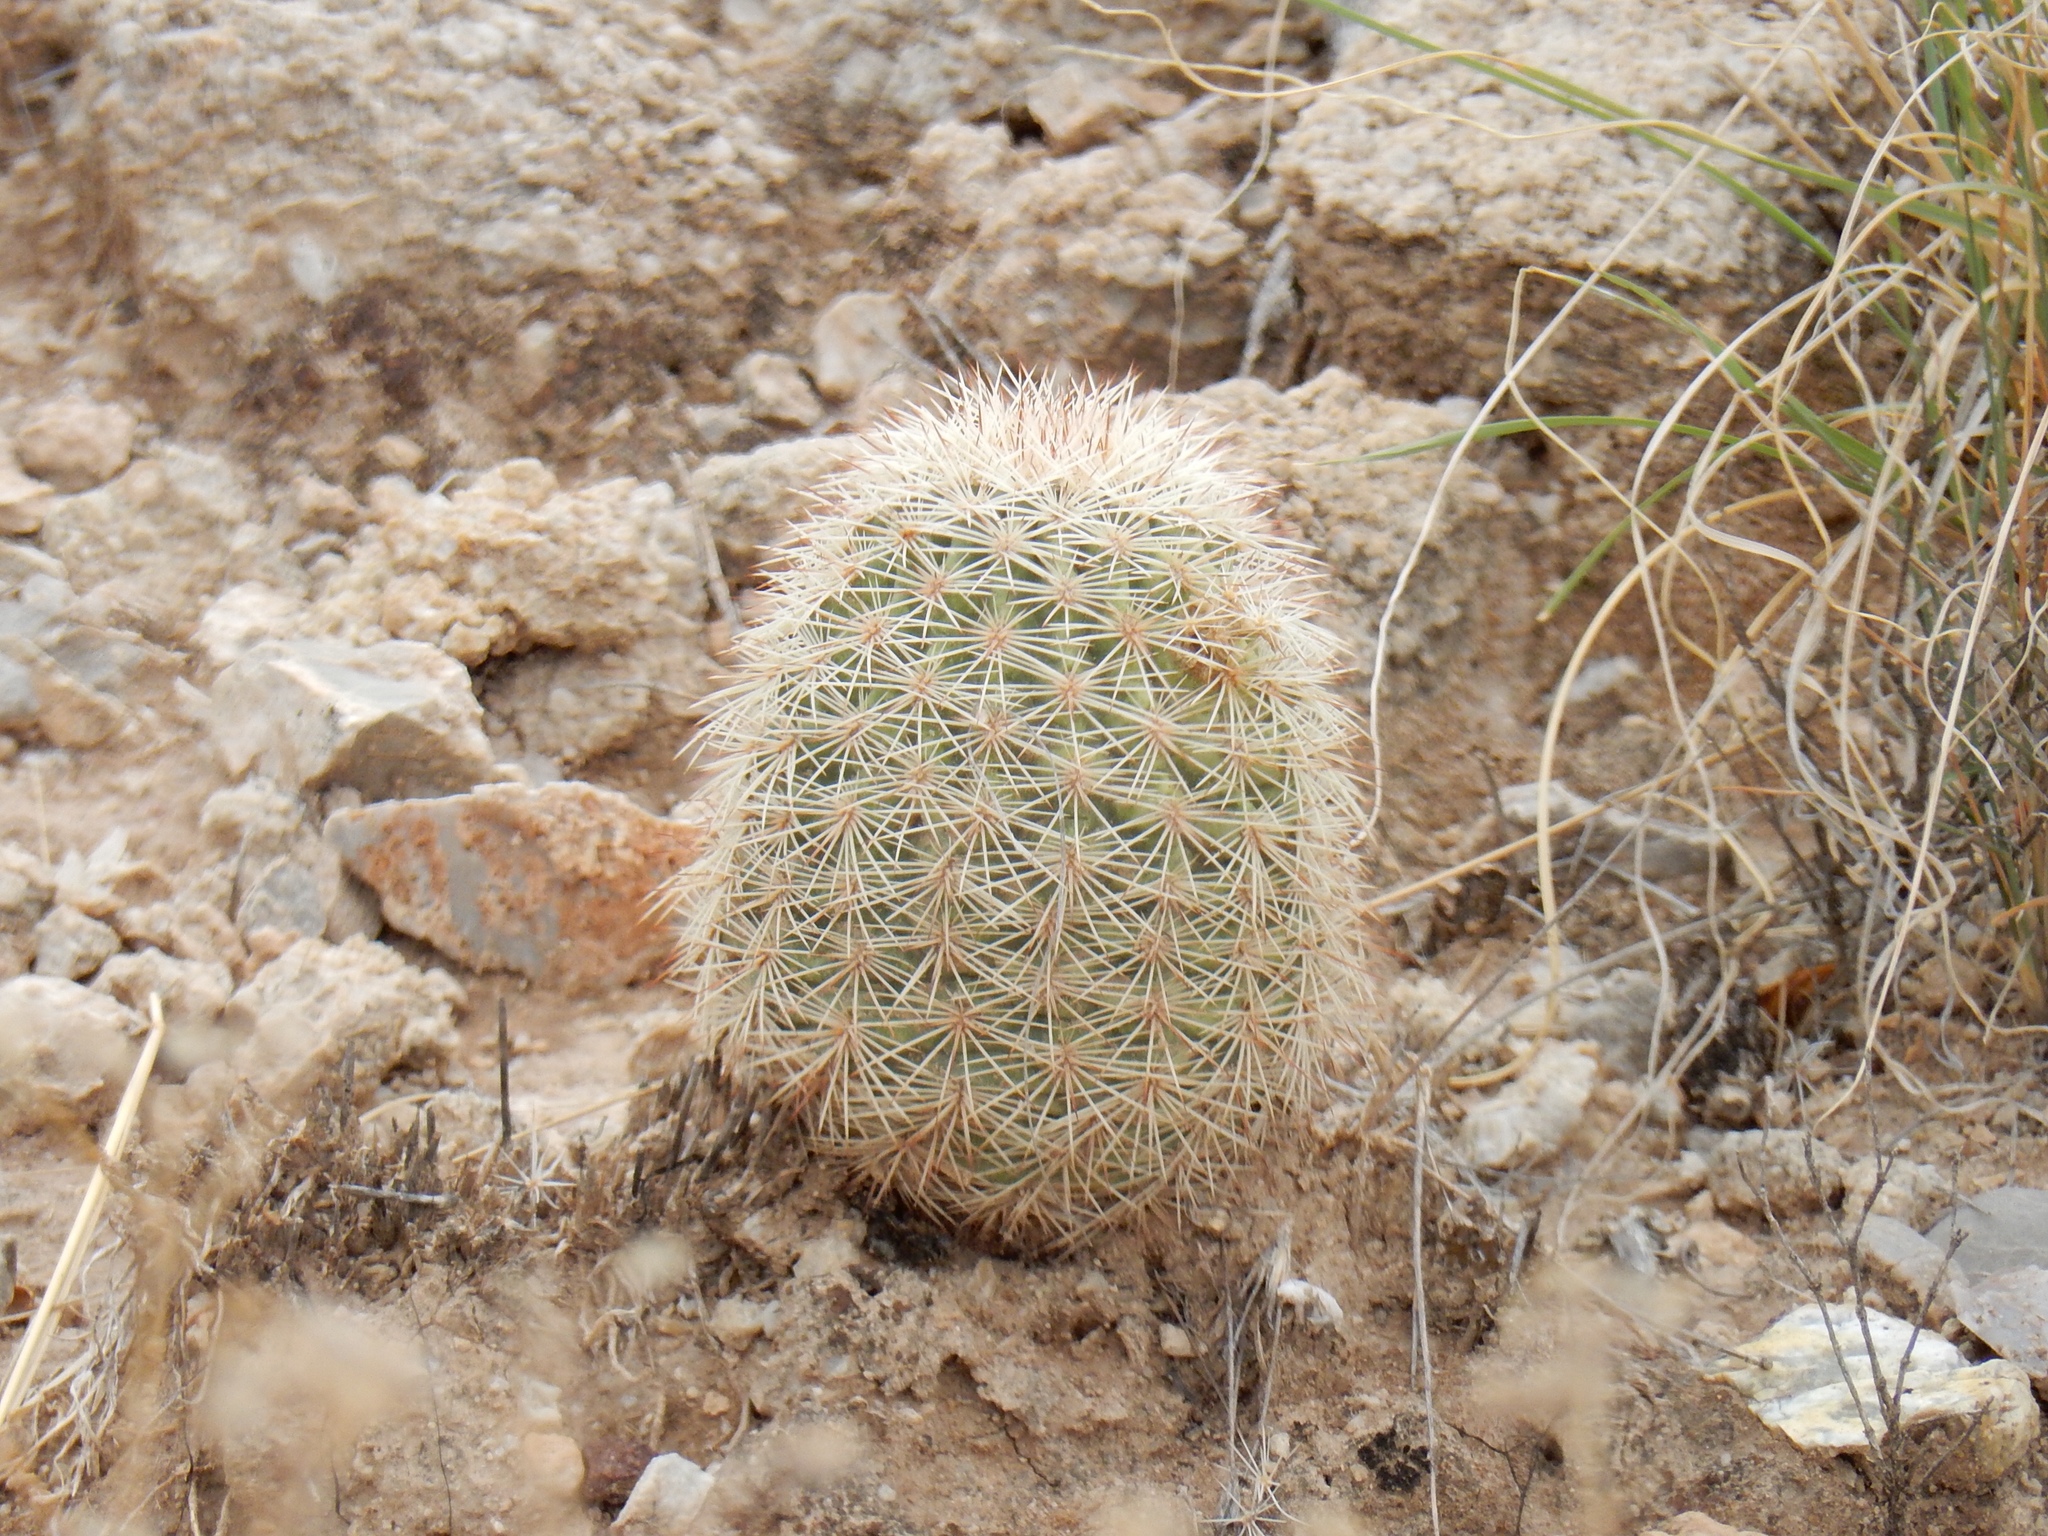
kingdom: Plantae
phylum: Tracheophyta
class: Magnoliopsida
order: Caryophyllales
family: Cactaceae
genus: Echinocereus
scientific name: Echinocereus dasyacanthus
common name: Spiny hedgehog cactus
